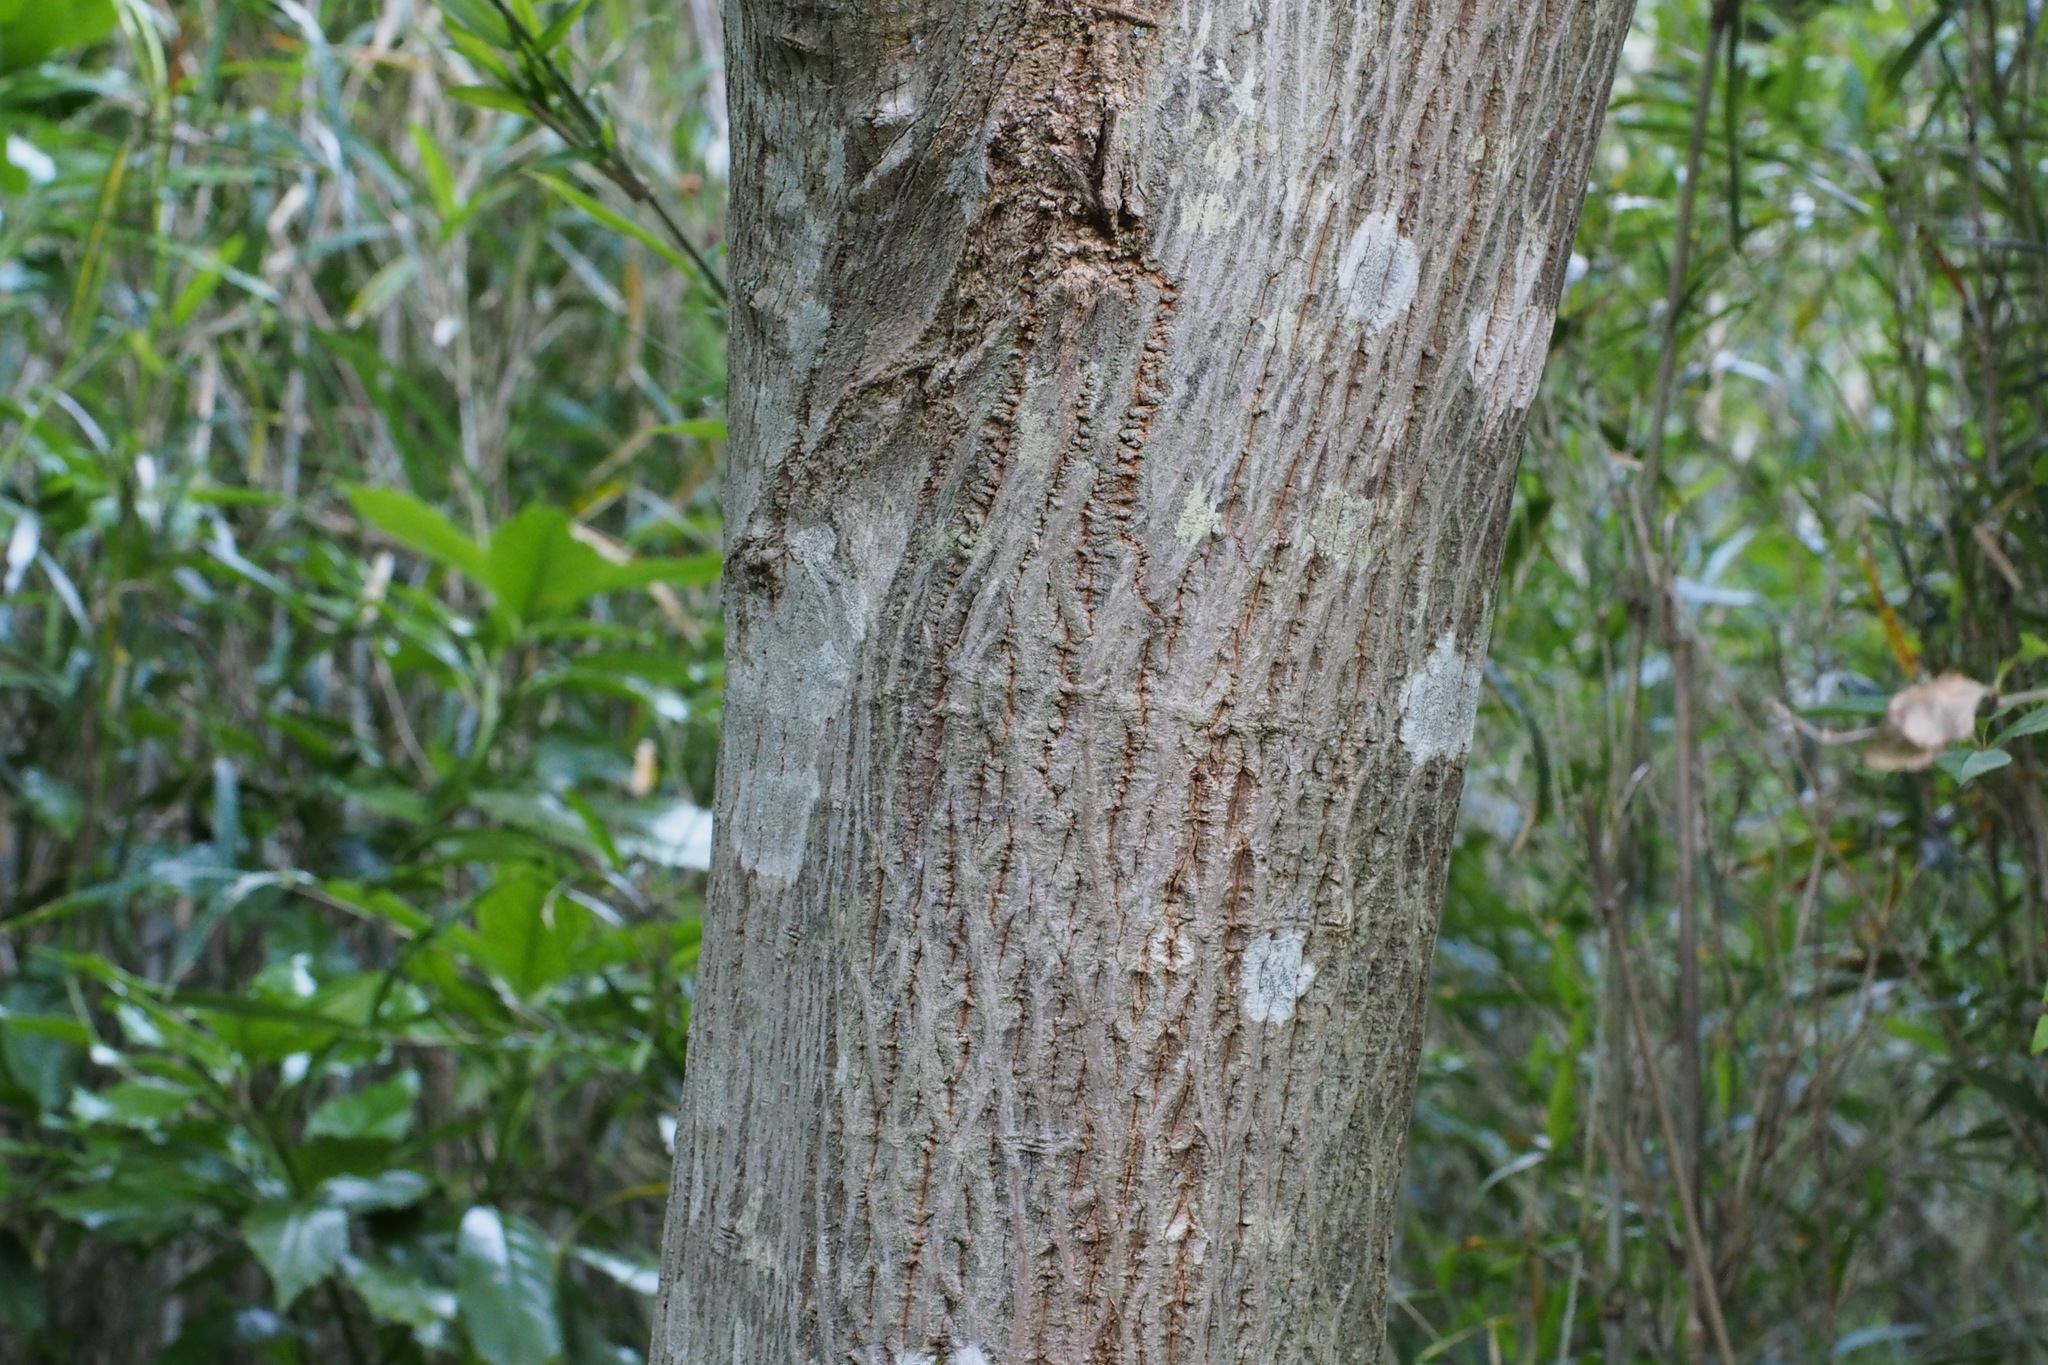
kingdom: Plantae
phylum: Tracheophyta
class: Magnoliopsida
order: Malpighiales
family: Euphorbiaceae
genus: Mallotus
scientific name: Mallotus japonicus
